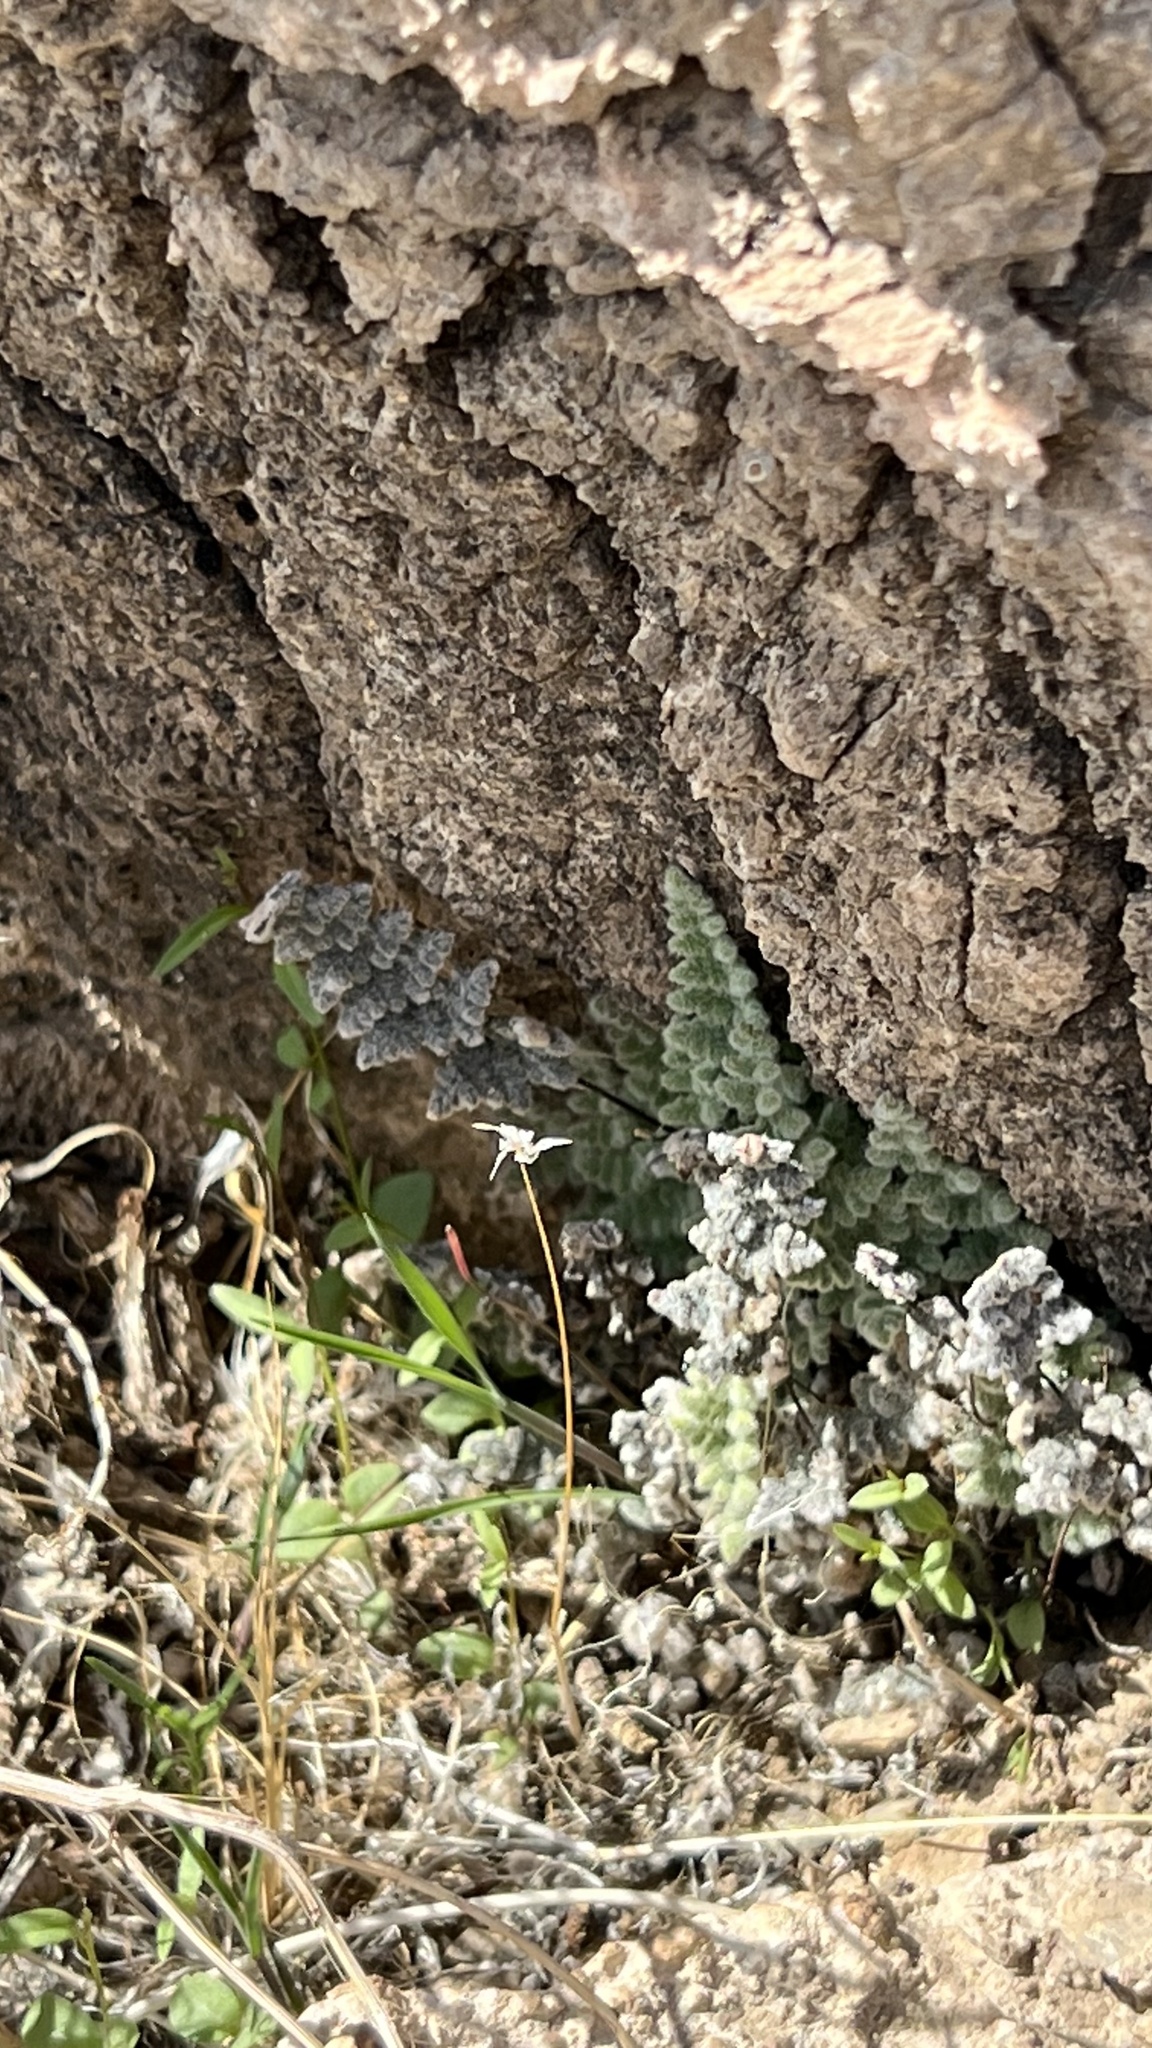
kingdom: Plantae
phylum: Tracheophyta
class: Polypodiopsida
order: Polypodiales
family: Pteridaceae
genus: Myriopteris
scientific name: Myriopteris parryi
